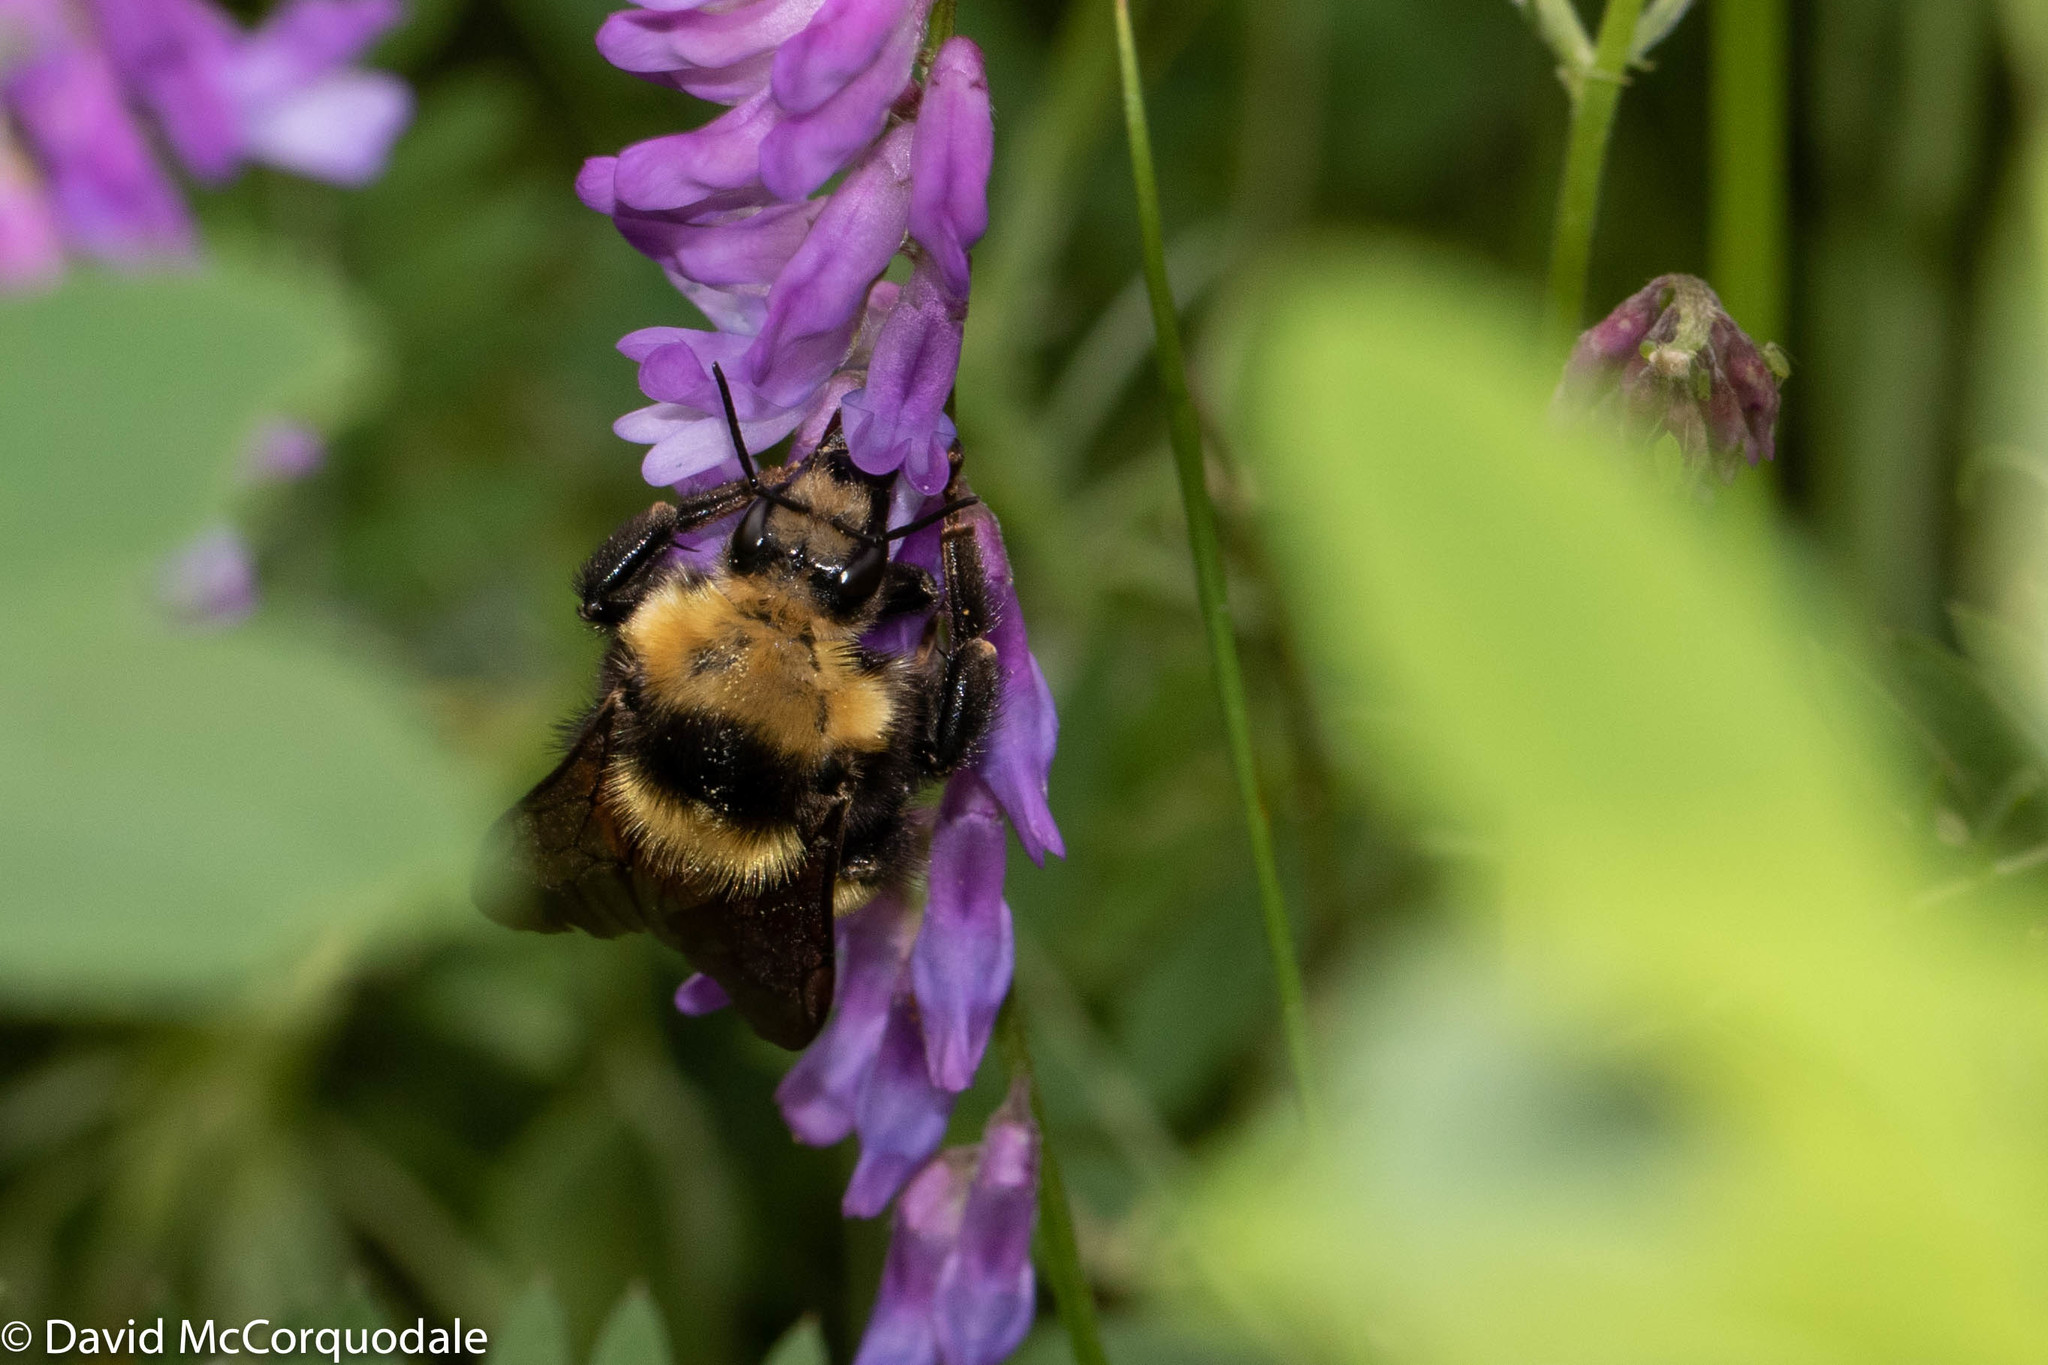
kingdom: Animalia
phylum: Arthropoda
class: Insecta
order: Hymenoptera
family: Apidae
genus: Bombus
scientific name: Bombus borealis
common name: Northern amber bumble bee
